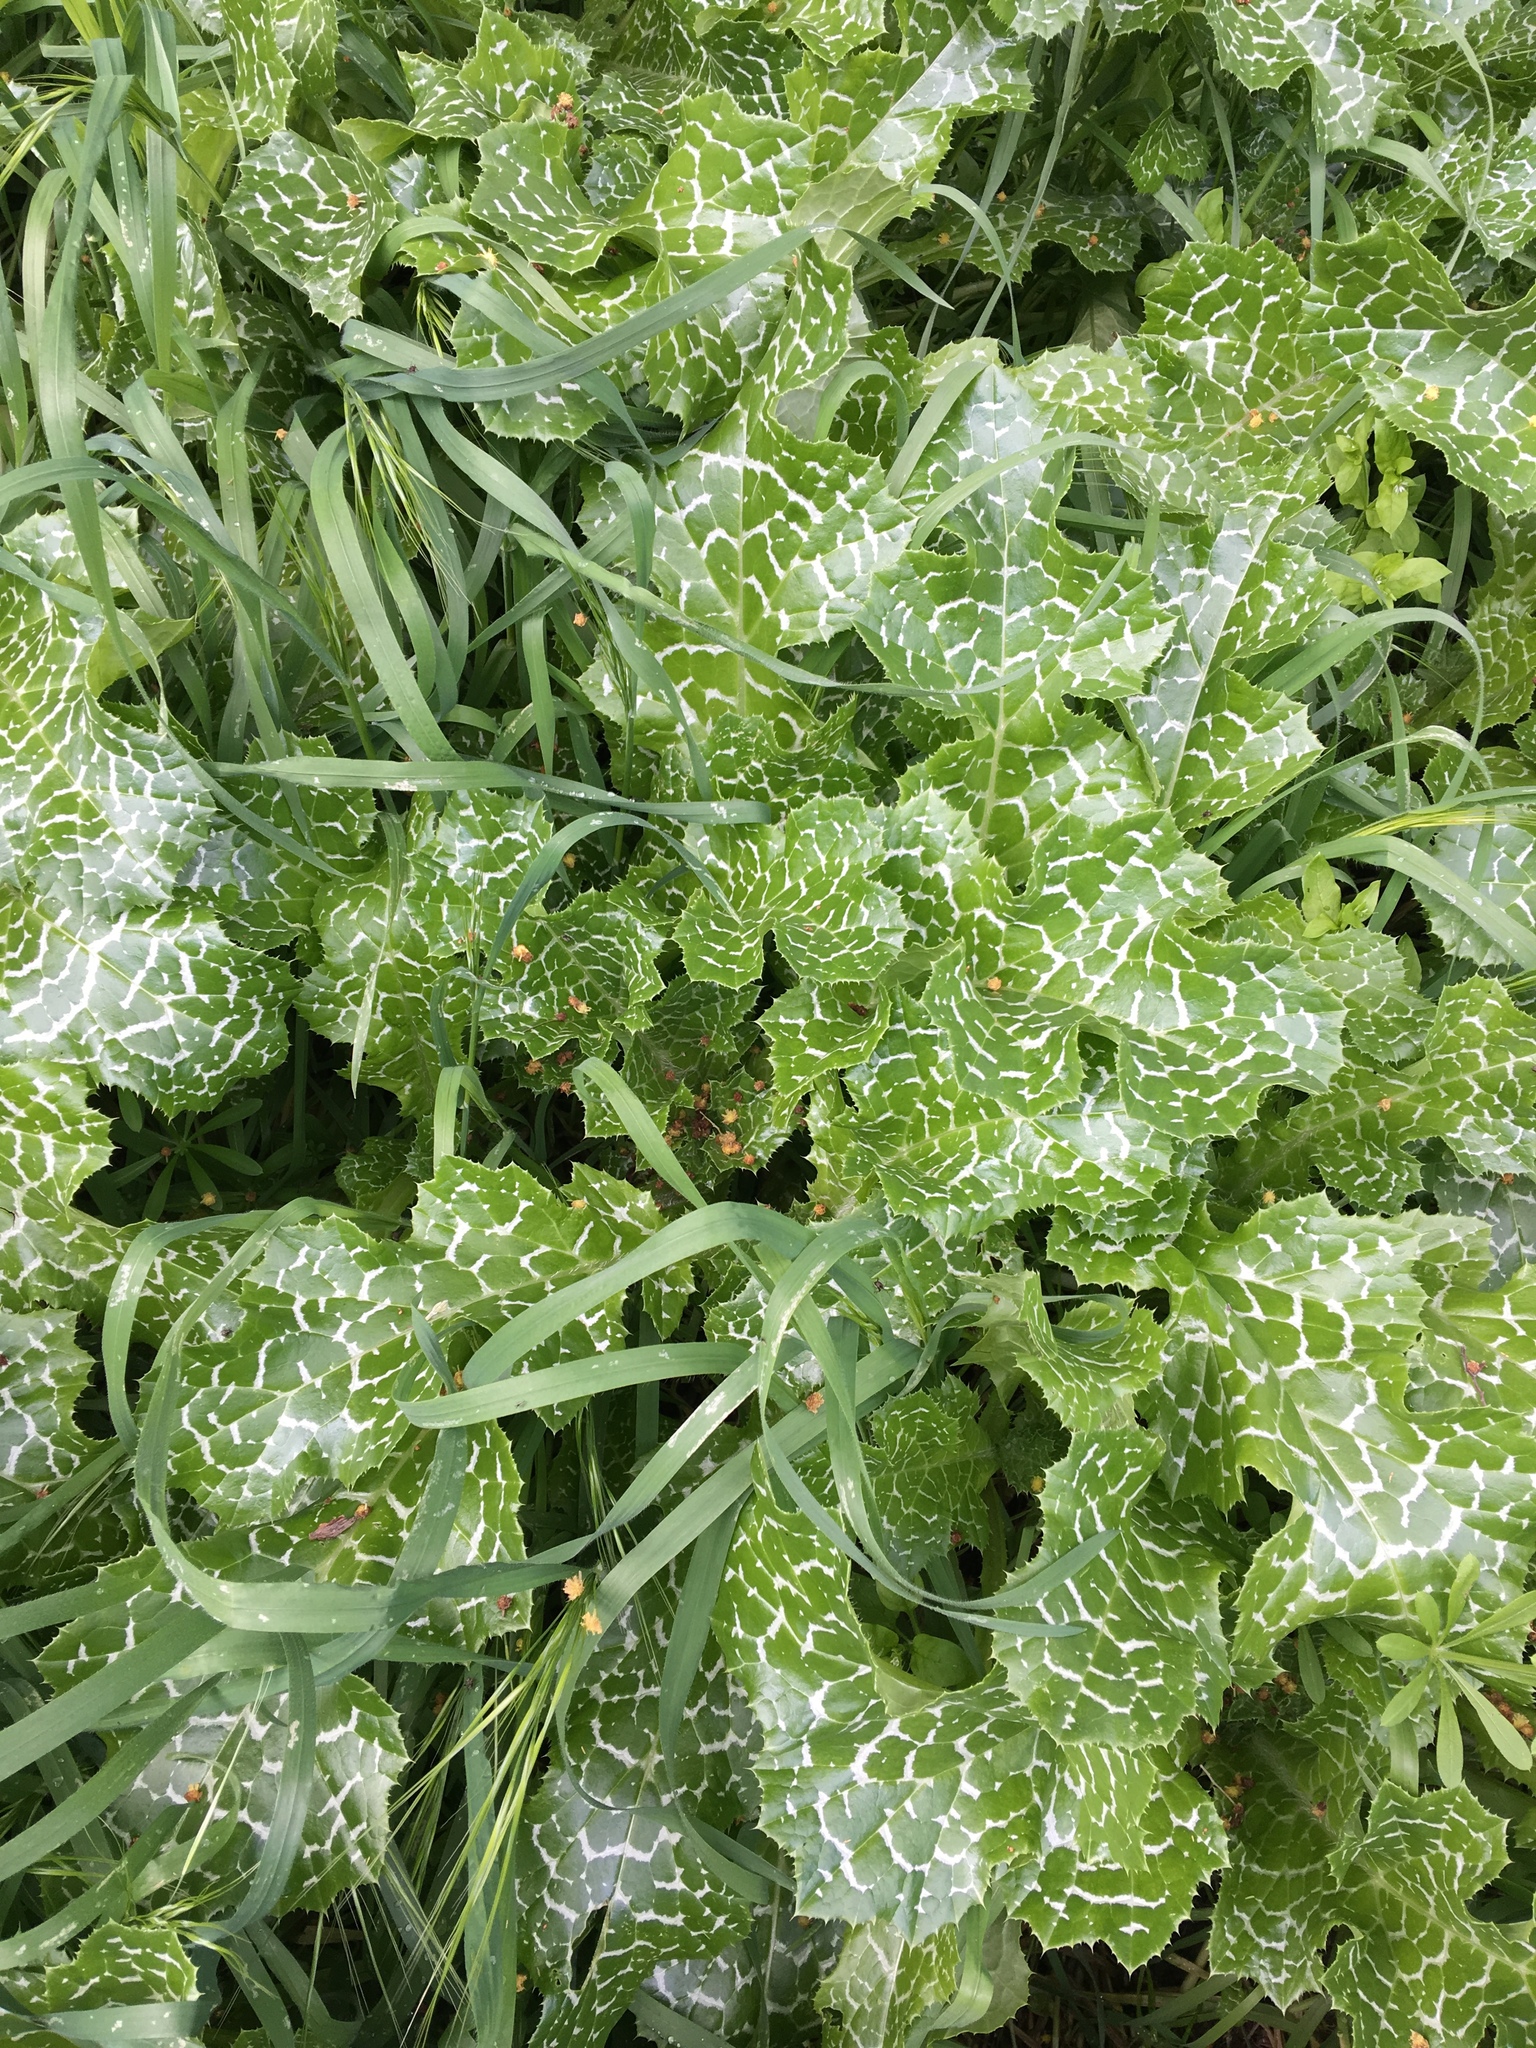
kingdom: Plantae
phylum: Tracheophyta
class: Magnoliopsida
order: Asterales
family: Asteraceae
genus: Silybum
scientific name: Silybum marianum
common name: Milk thistle
